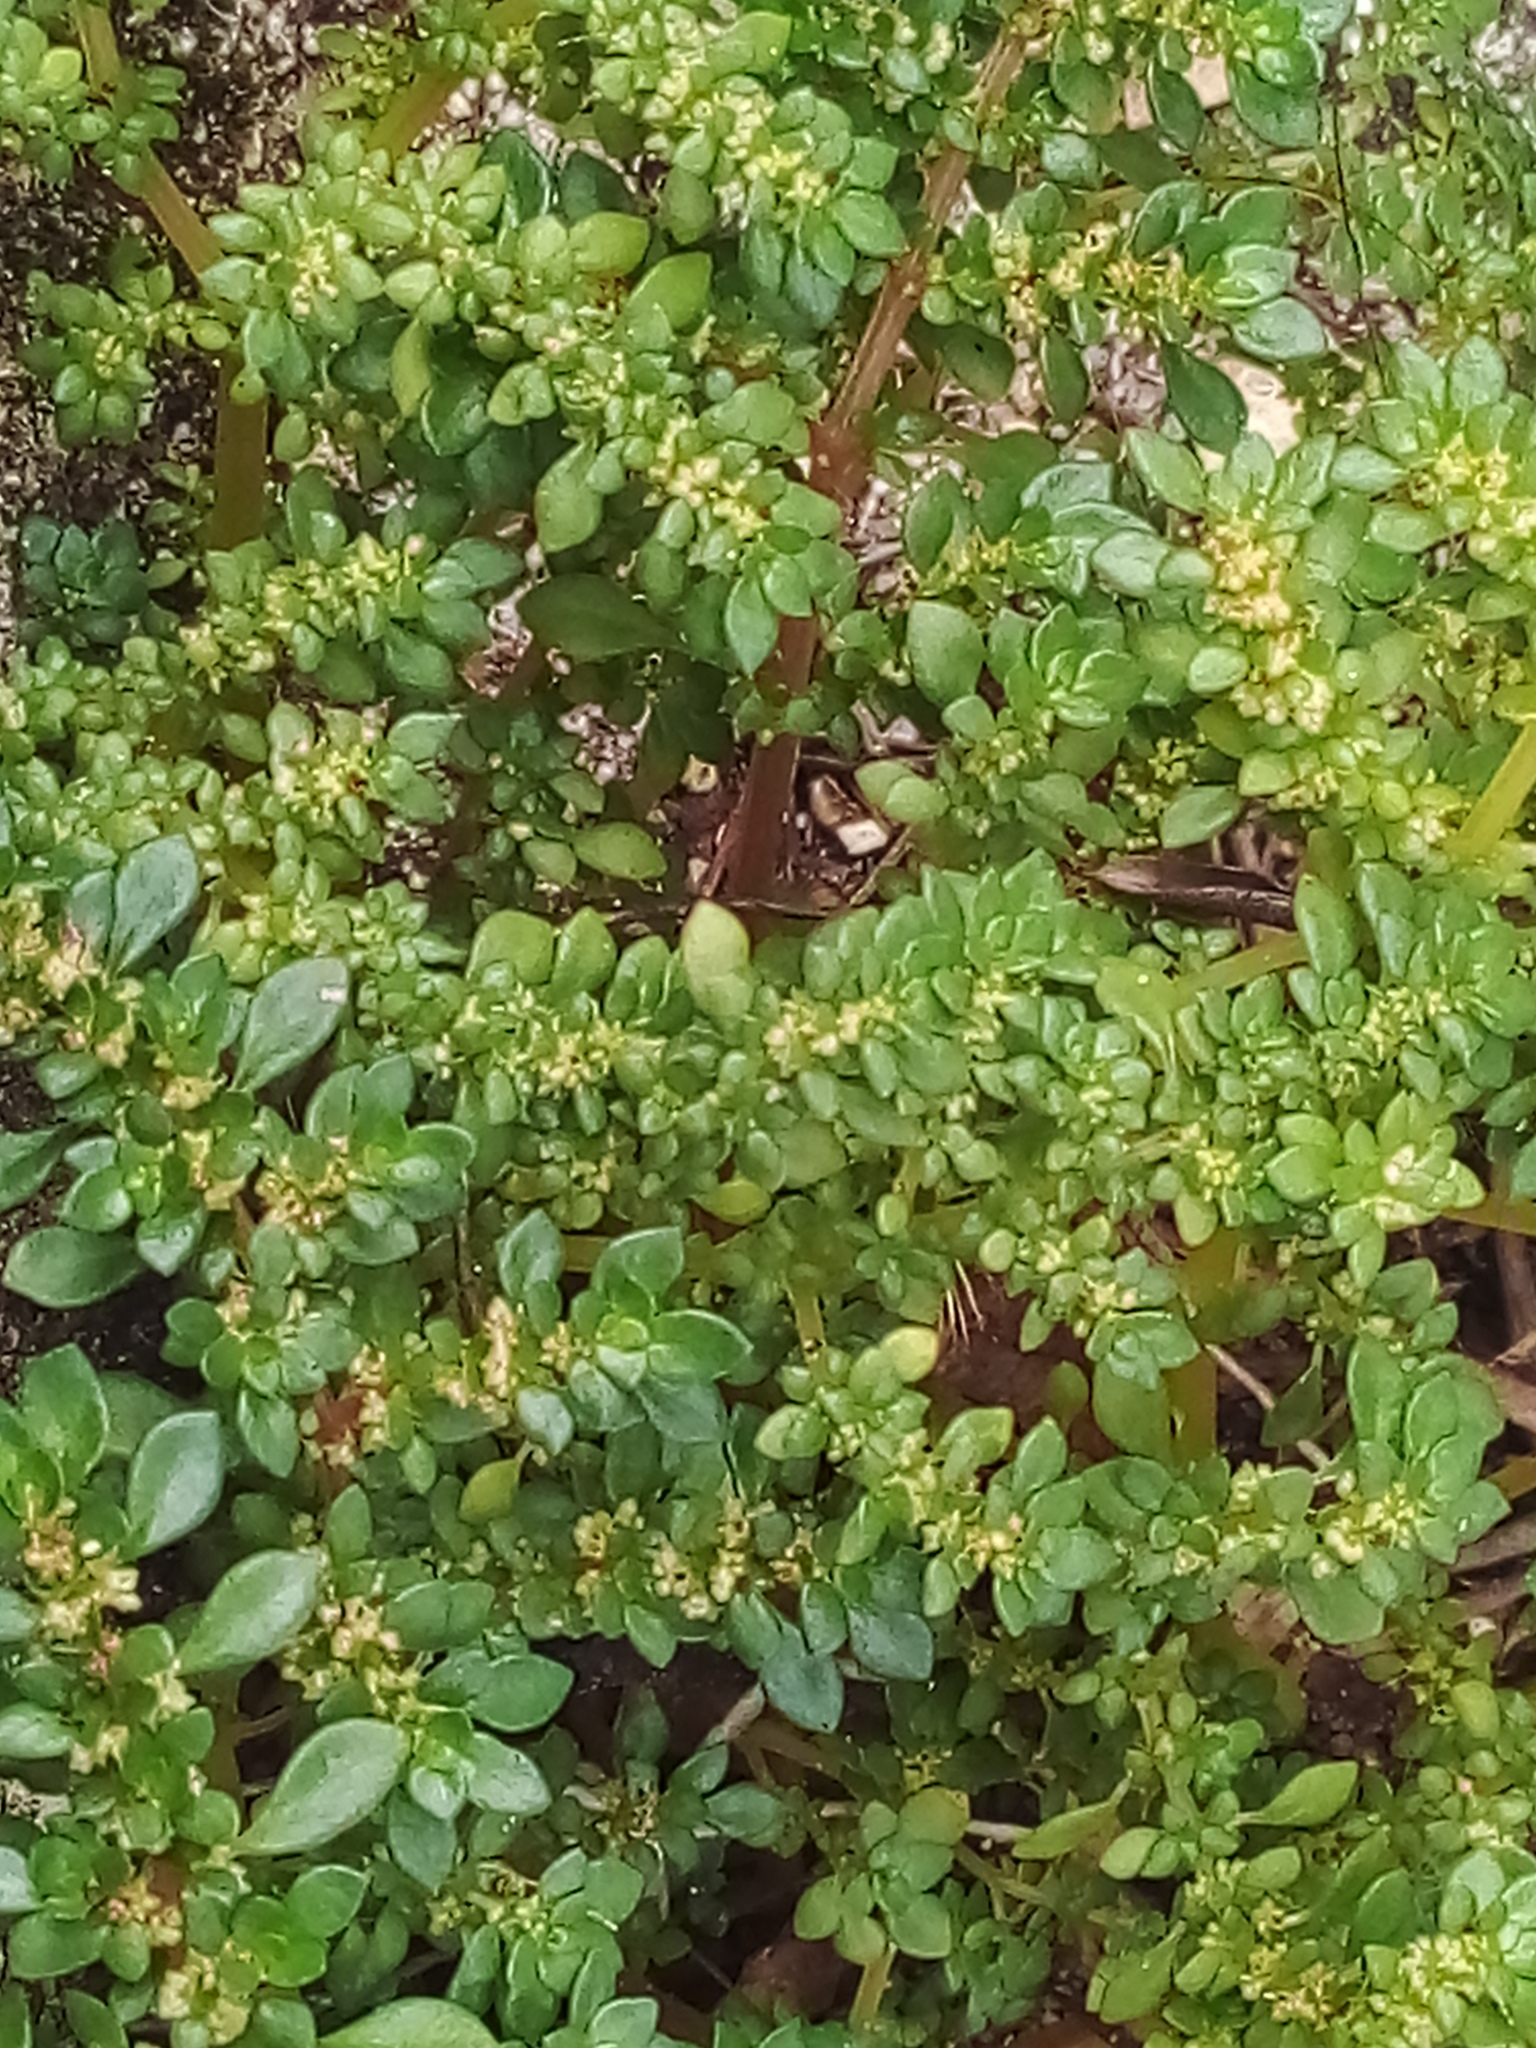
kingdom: Plantae
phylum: Tracheophyta
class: Magnoliopsida
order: Rosales
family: Urticaceae
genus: Pilea
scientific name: Pilea microphylla
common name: Artillery-plant
